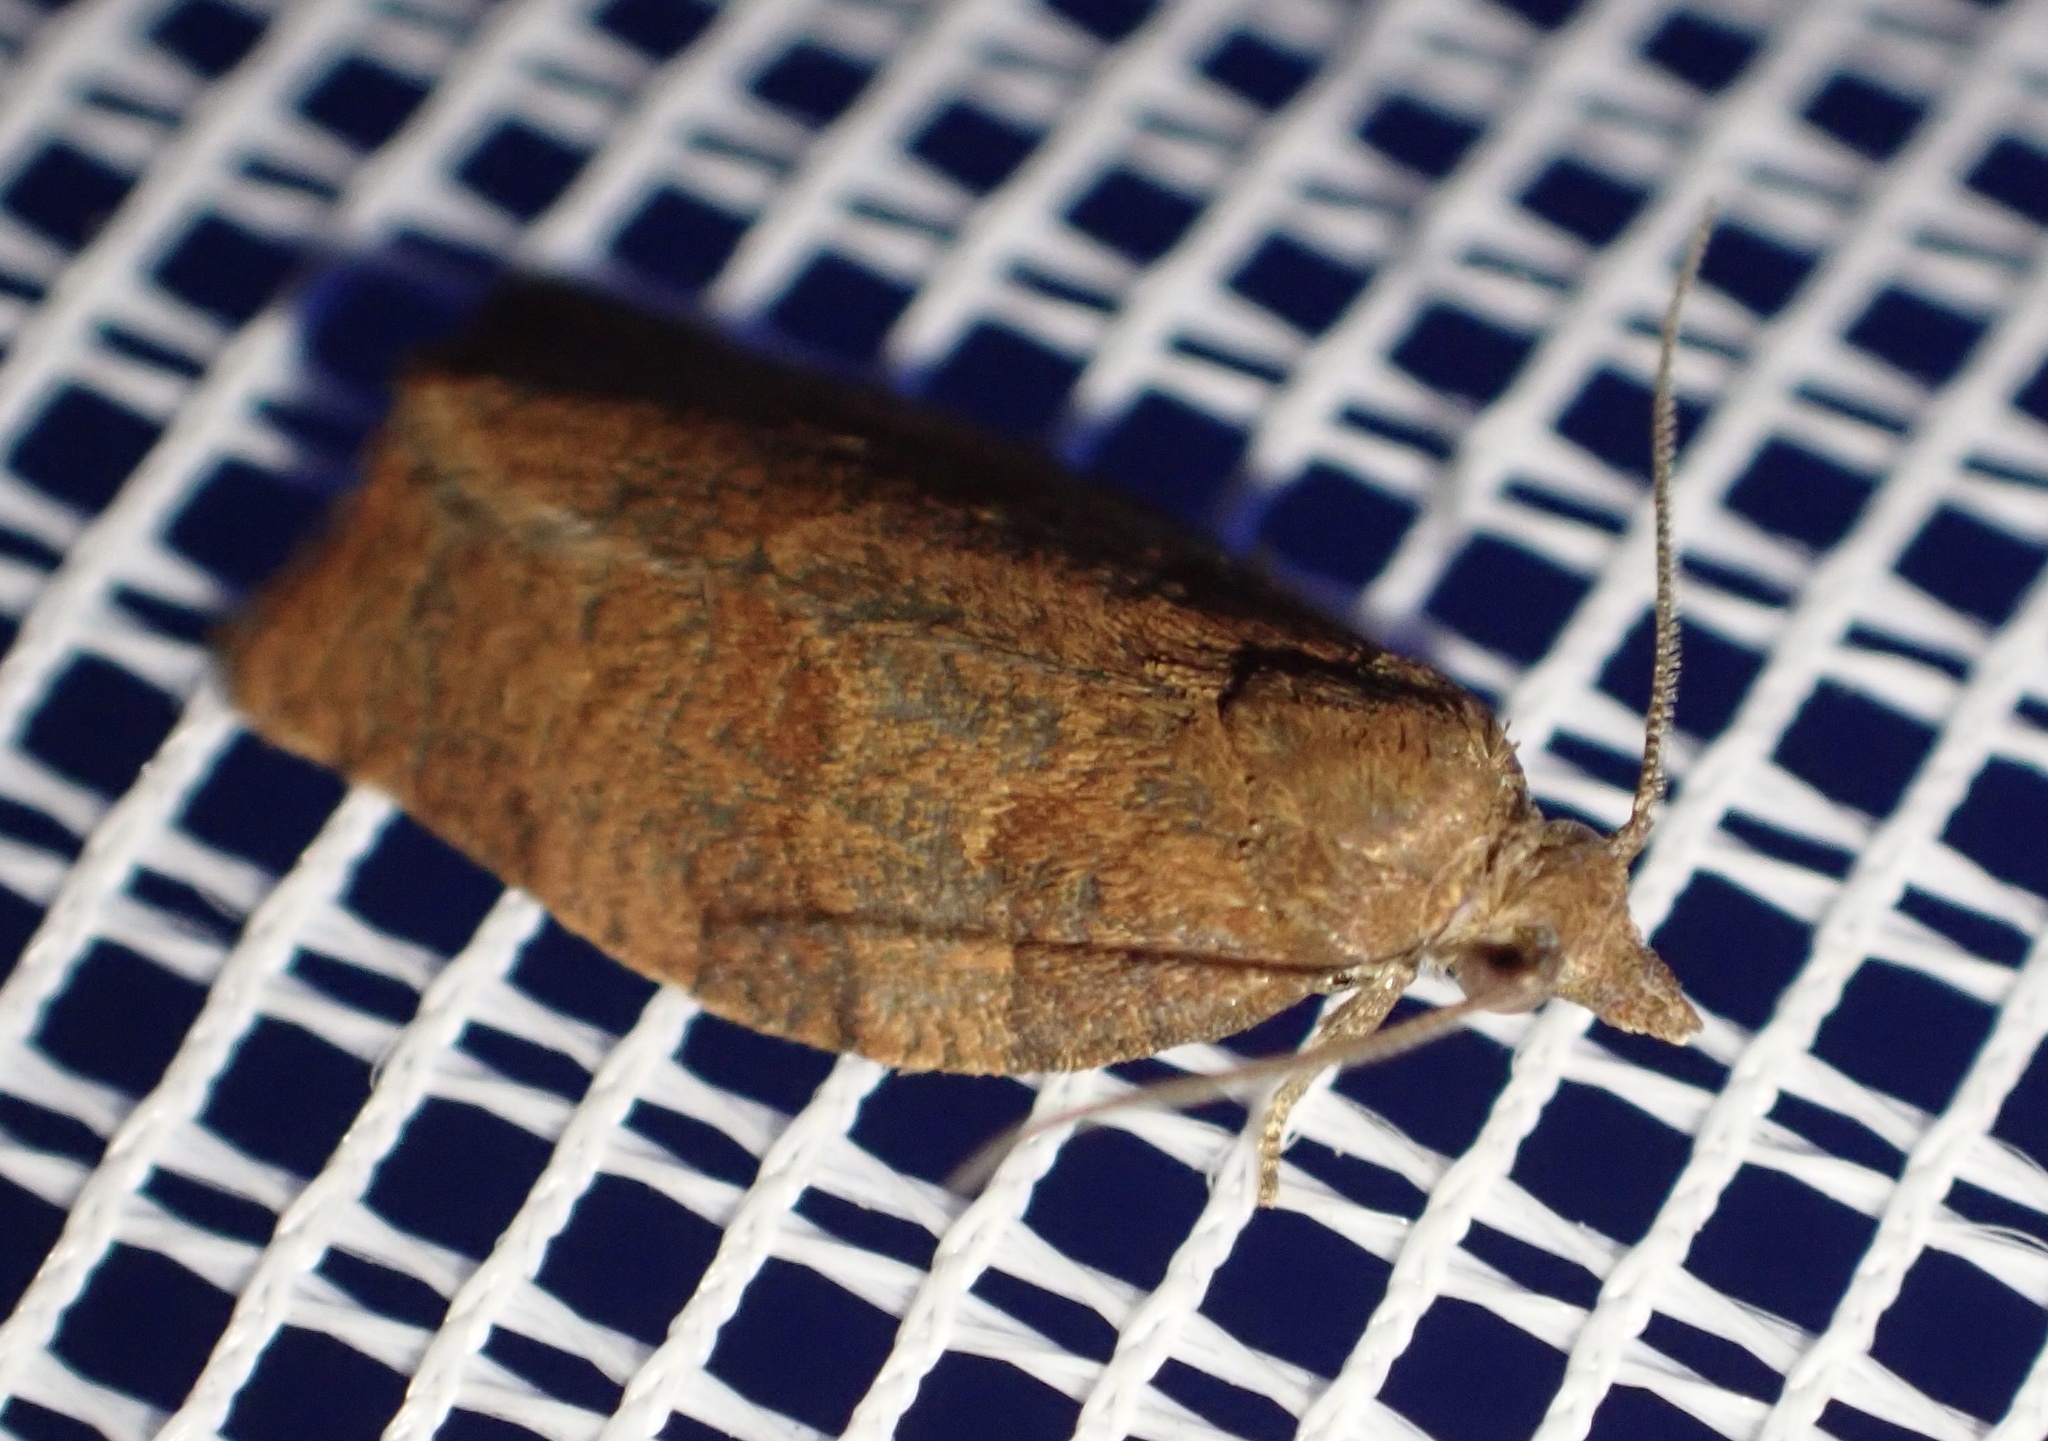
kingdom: Animalia
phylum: Arthropoda
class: Insecta
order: Lepidoptera
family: Tortricidae
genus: Pandemis
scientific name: Pandemis heparana
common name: Dark fruit-tree tortrix
